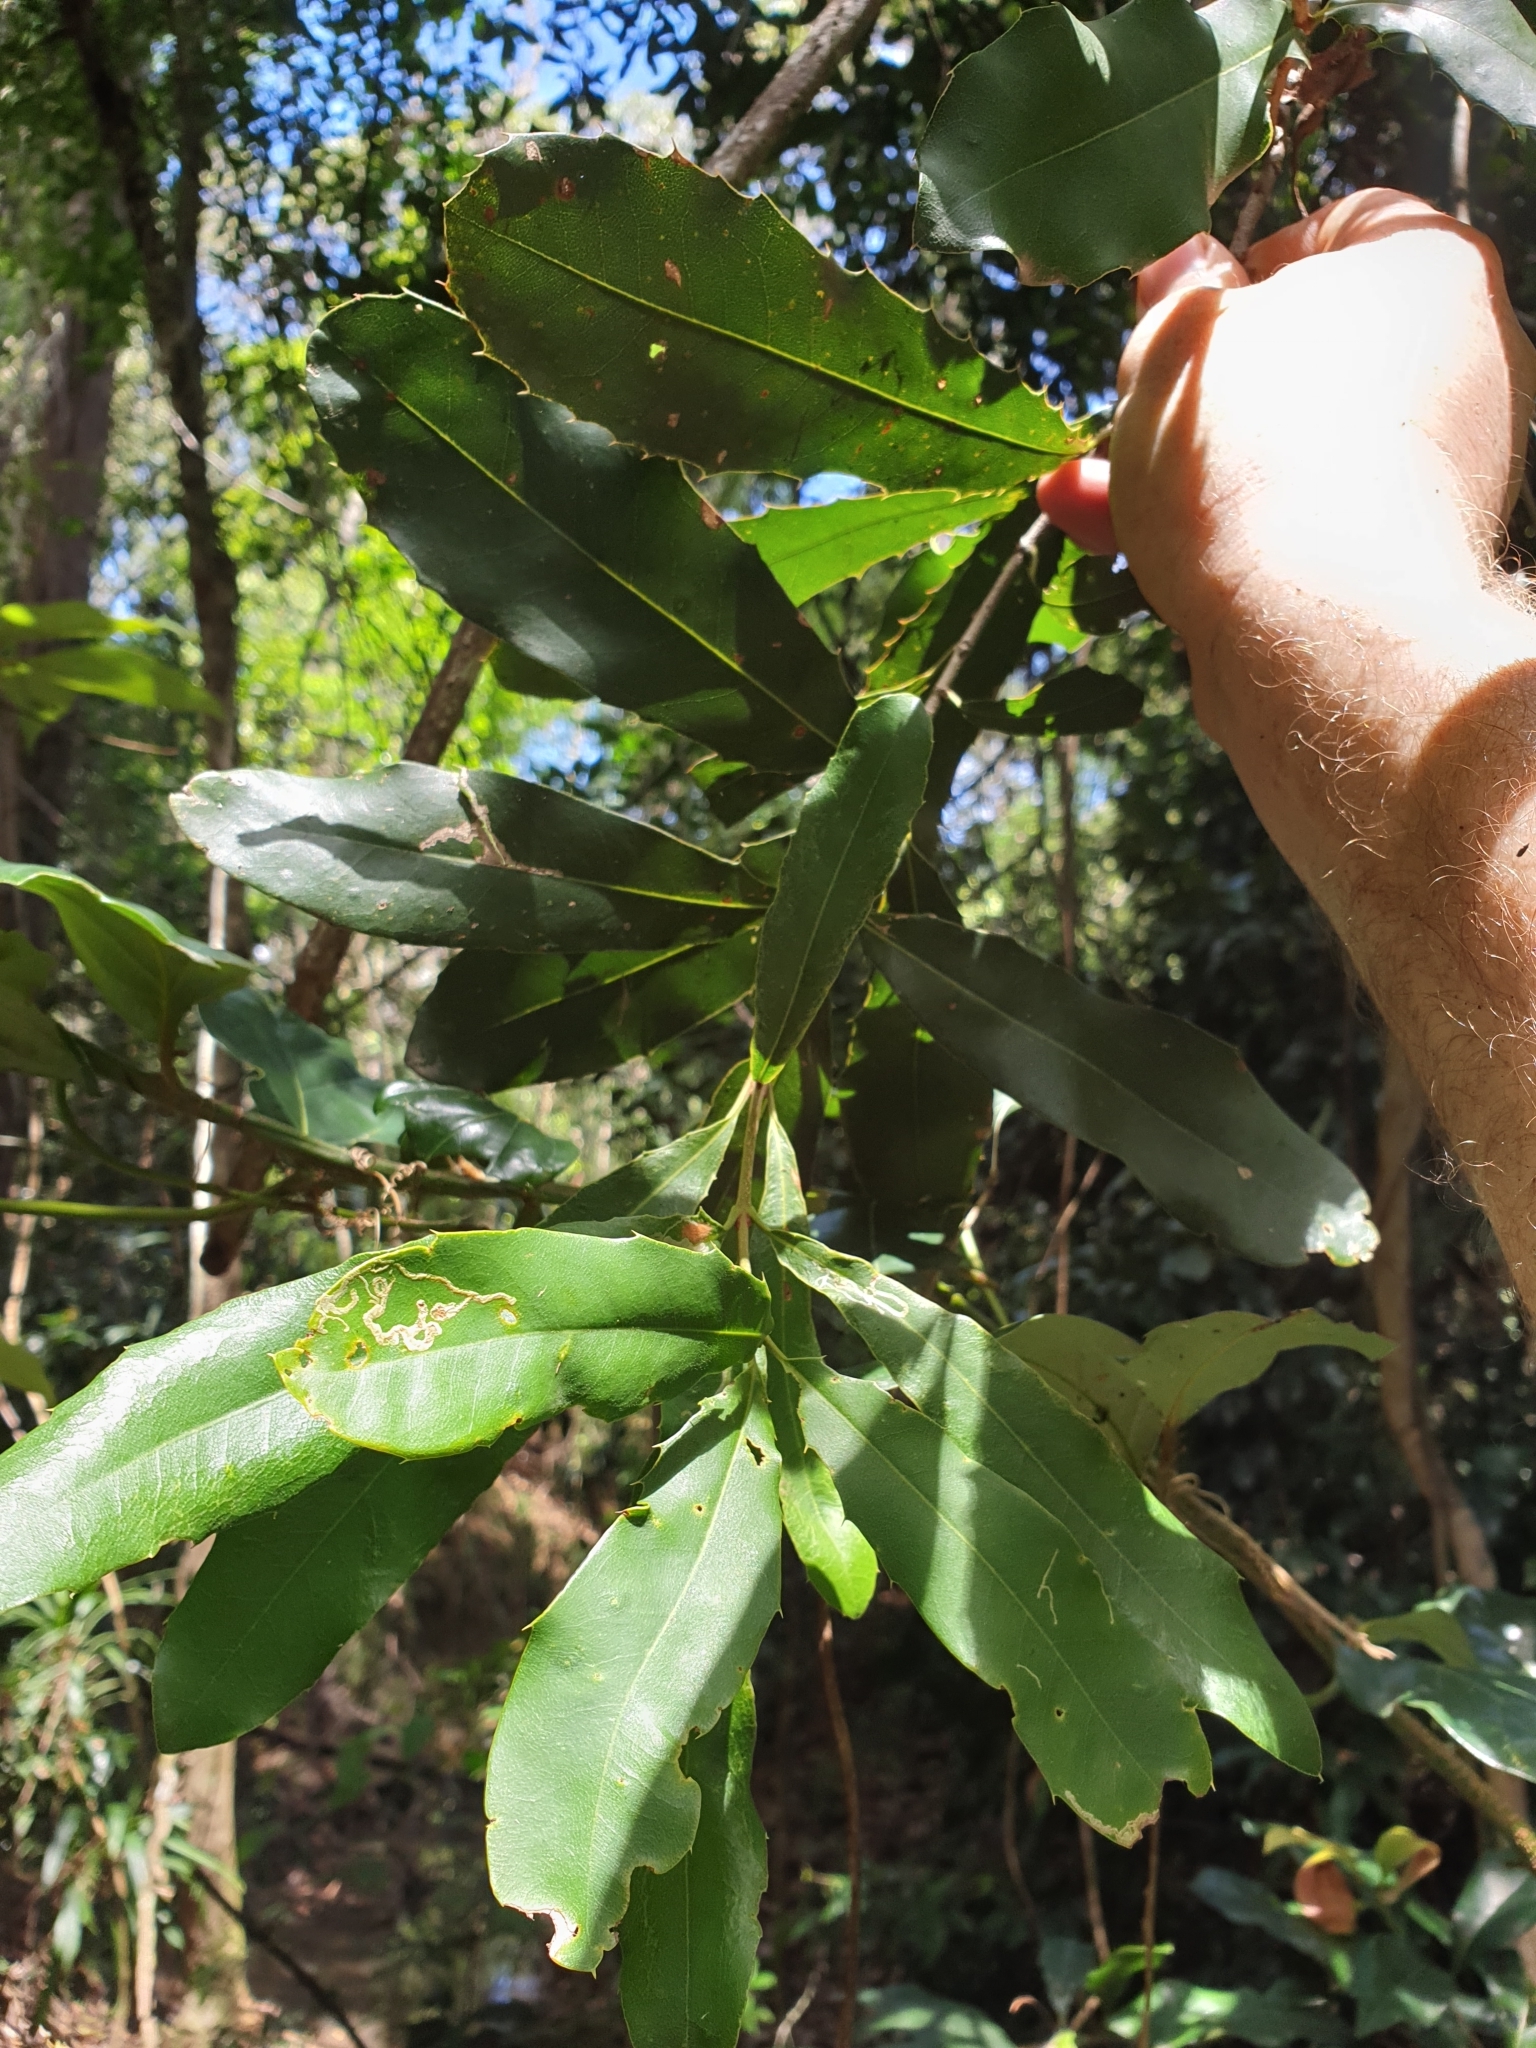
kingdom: Plantae
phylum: Tracheophyta
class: Magnoliopsida
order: Proteales
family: Proteaceae
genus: Macadamia
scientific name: Macadamia integrifolia
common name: Macadamia
